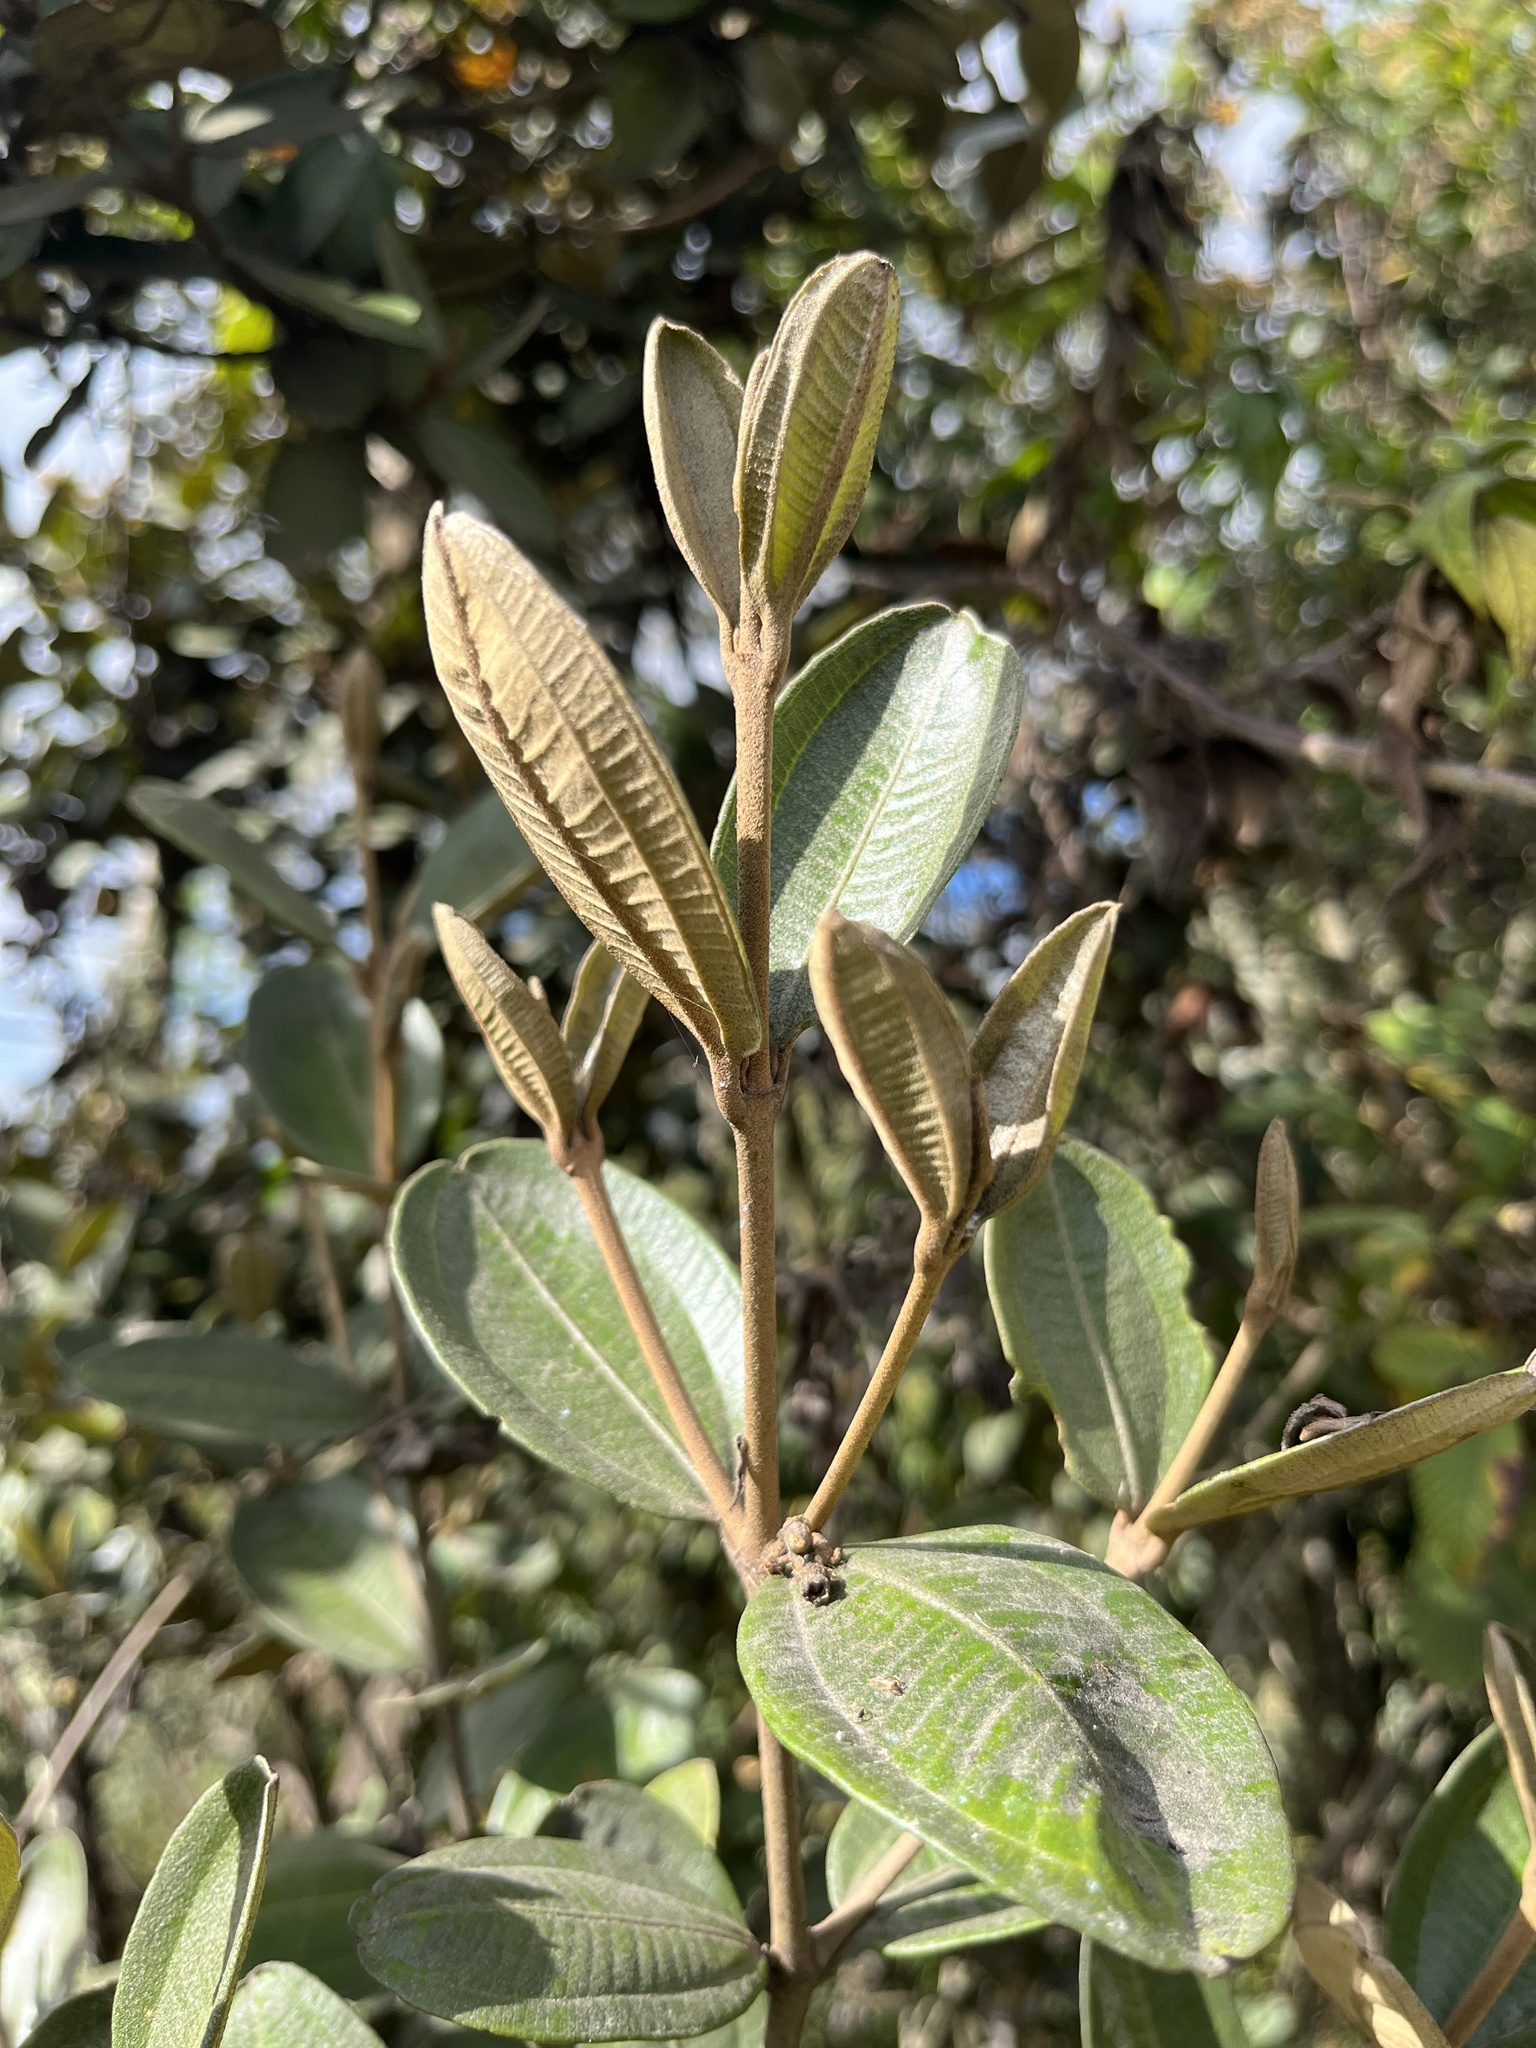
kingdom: Plantae
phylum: Tracheophyta
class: Magnoliopsida
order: Myrtales
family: Melastomataceae
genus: Miconia
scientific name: Miconia squamulosa
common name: Squamulose maya
